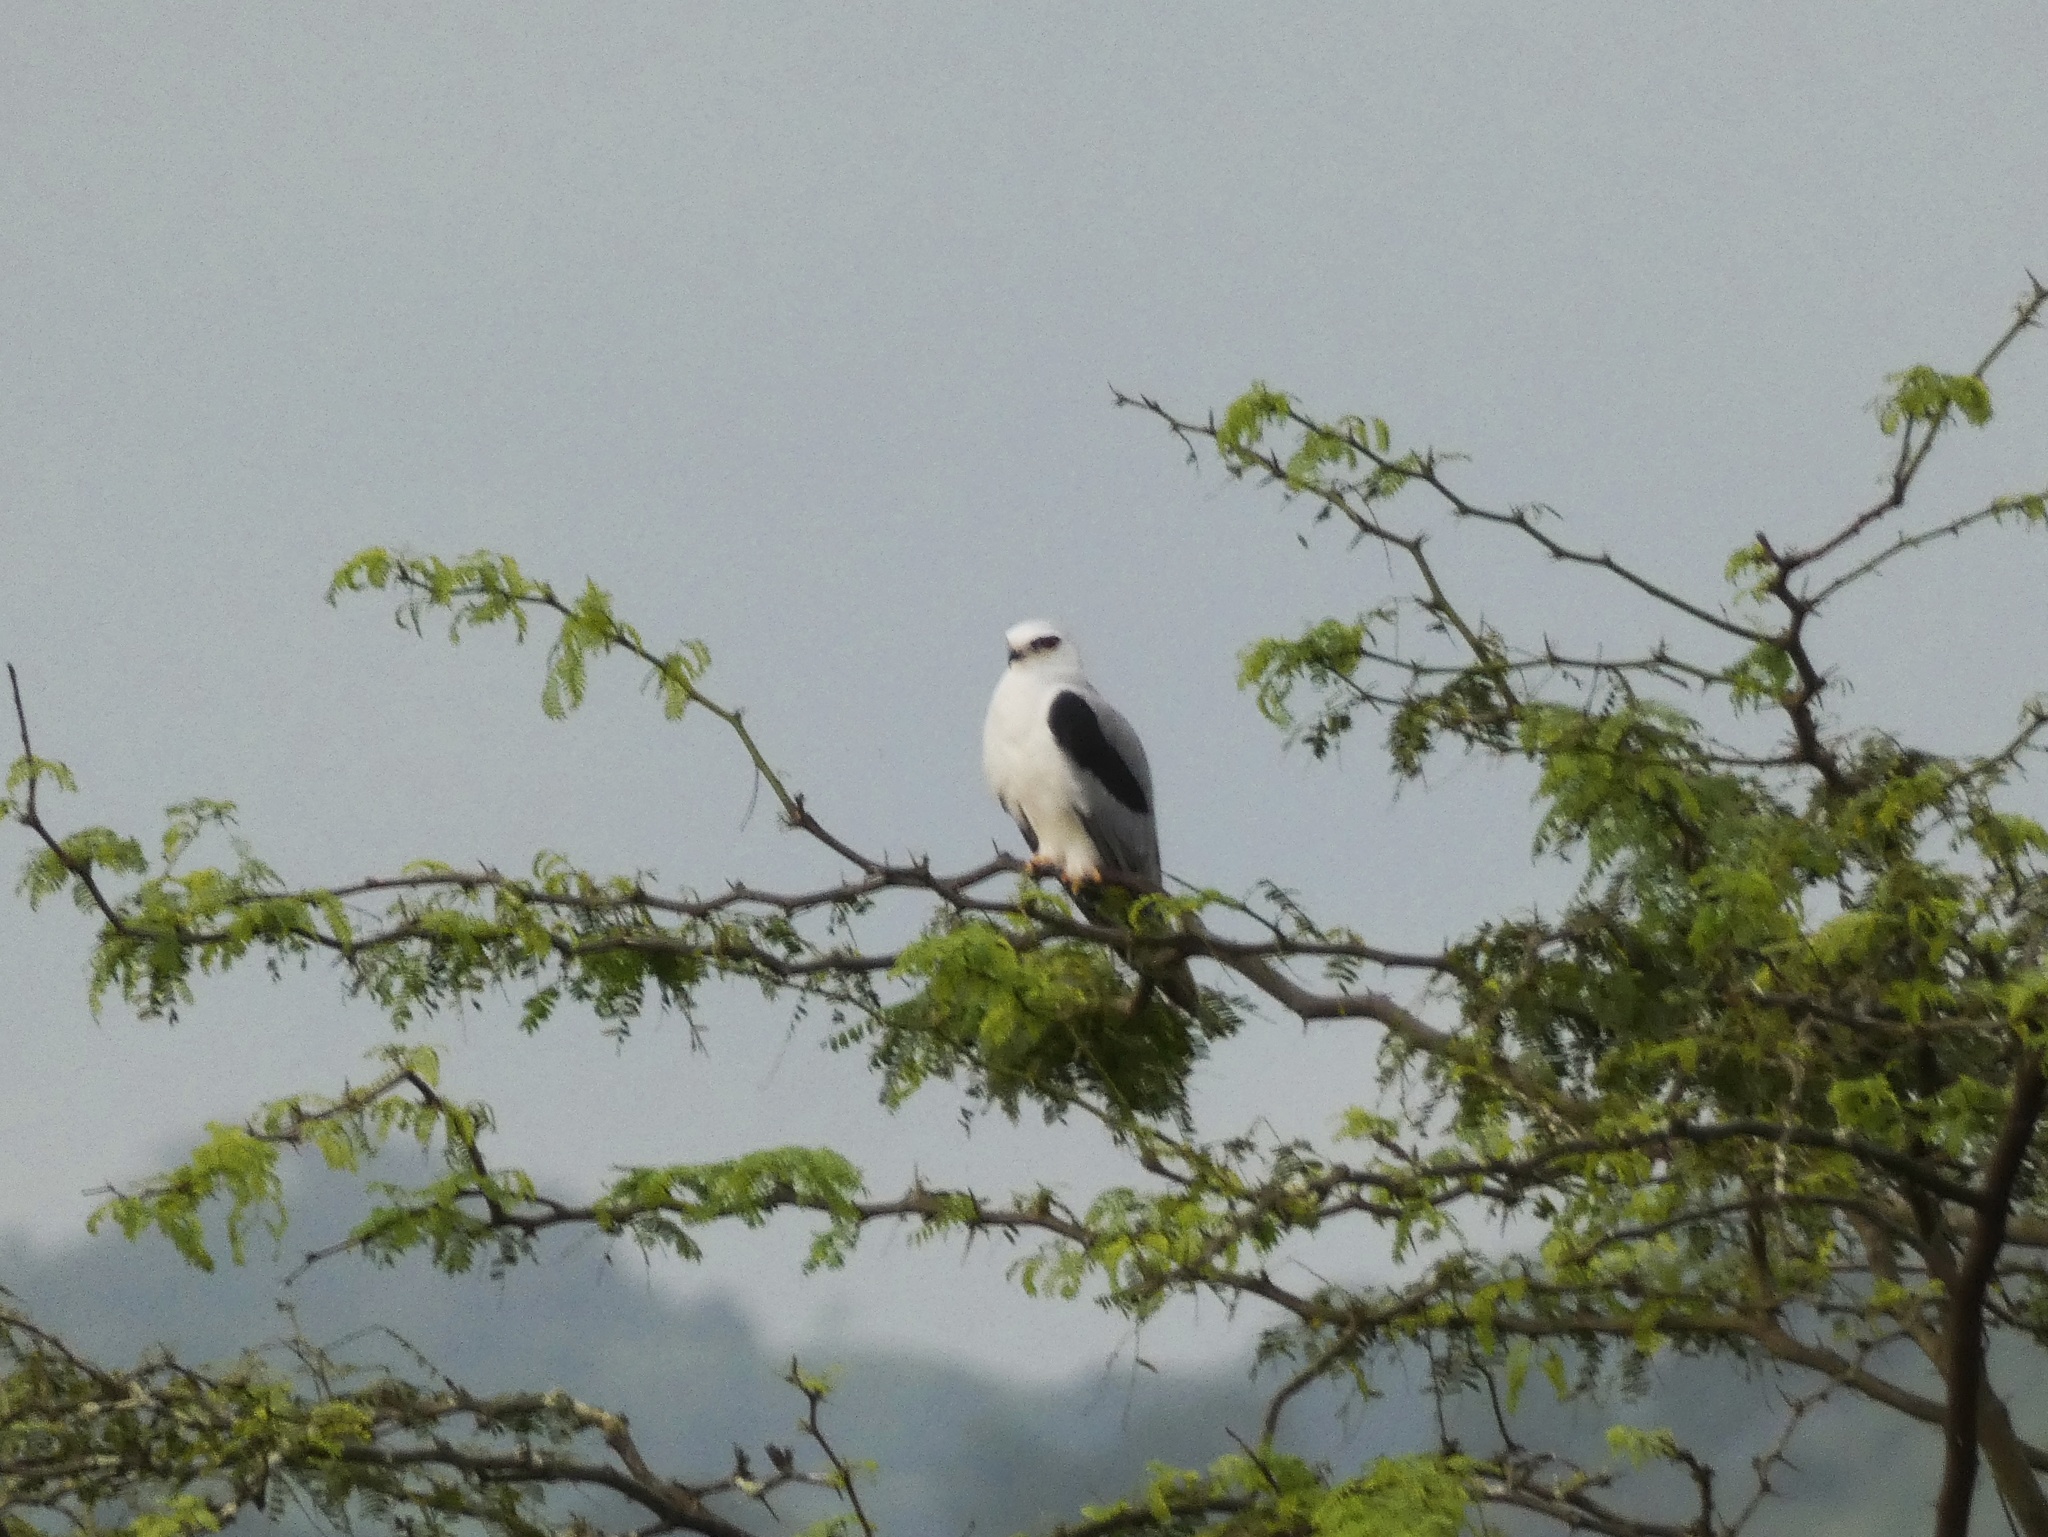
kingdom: Animalia
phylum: Chordata
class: Aves
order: Accipitriformes
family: Accipitridae
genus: Elanus
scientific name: Elanus leucurus
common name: White-tailed kite
